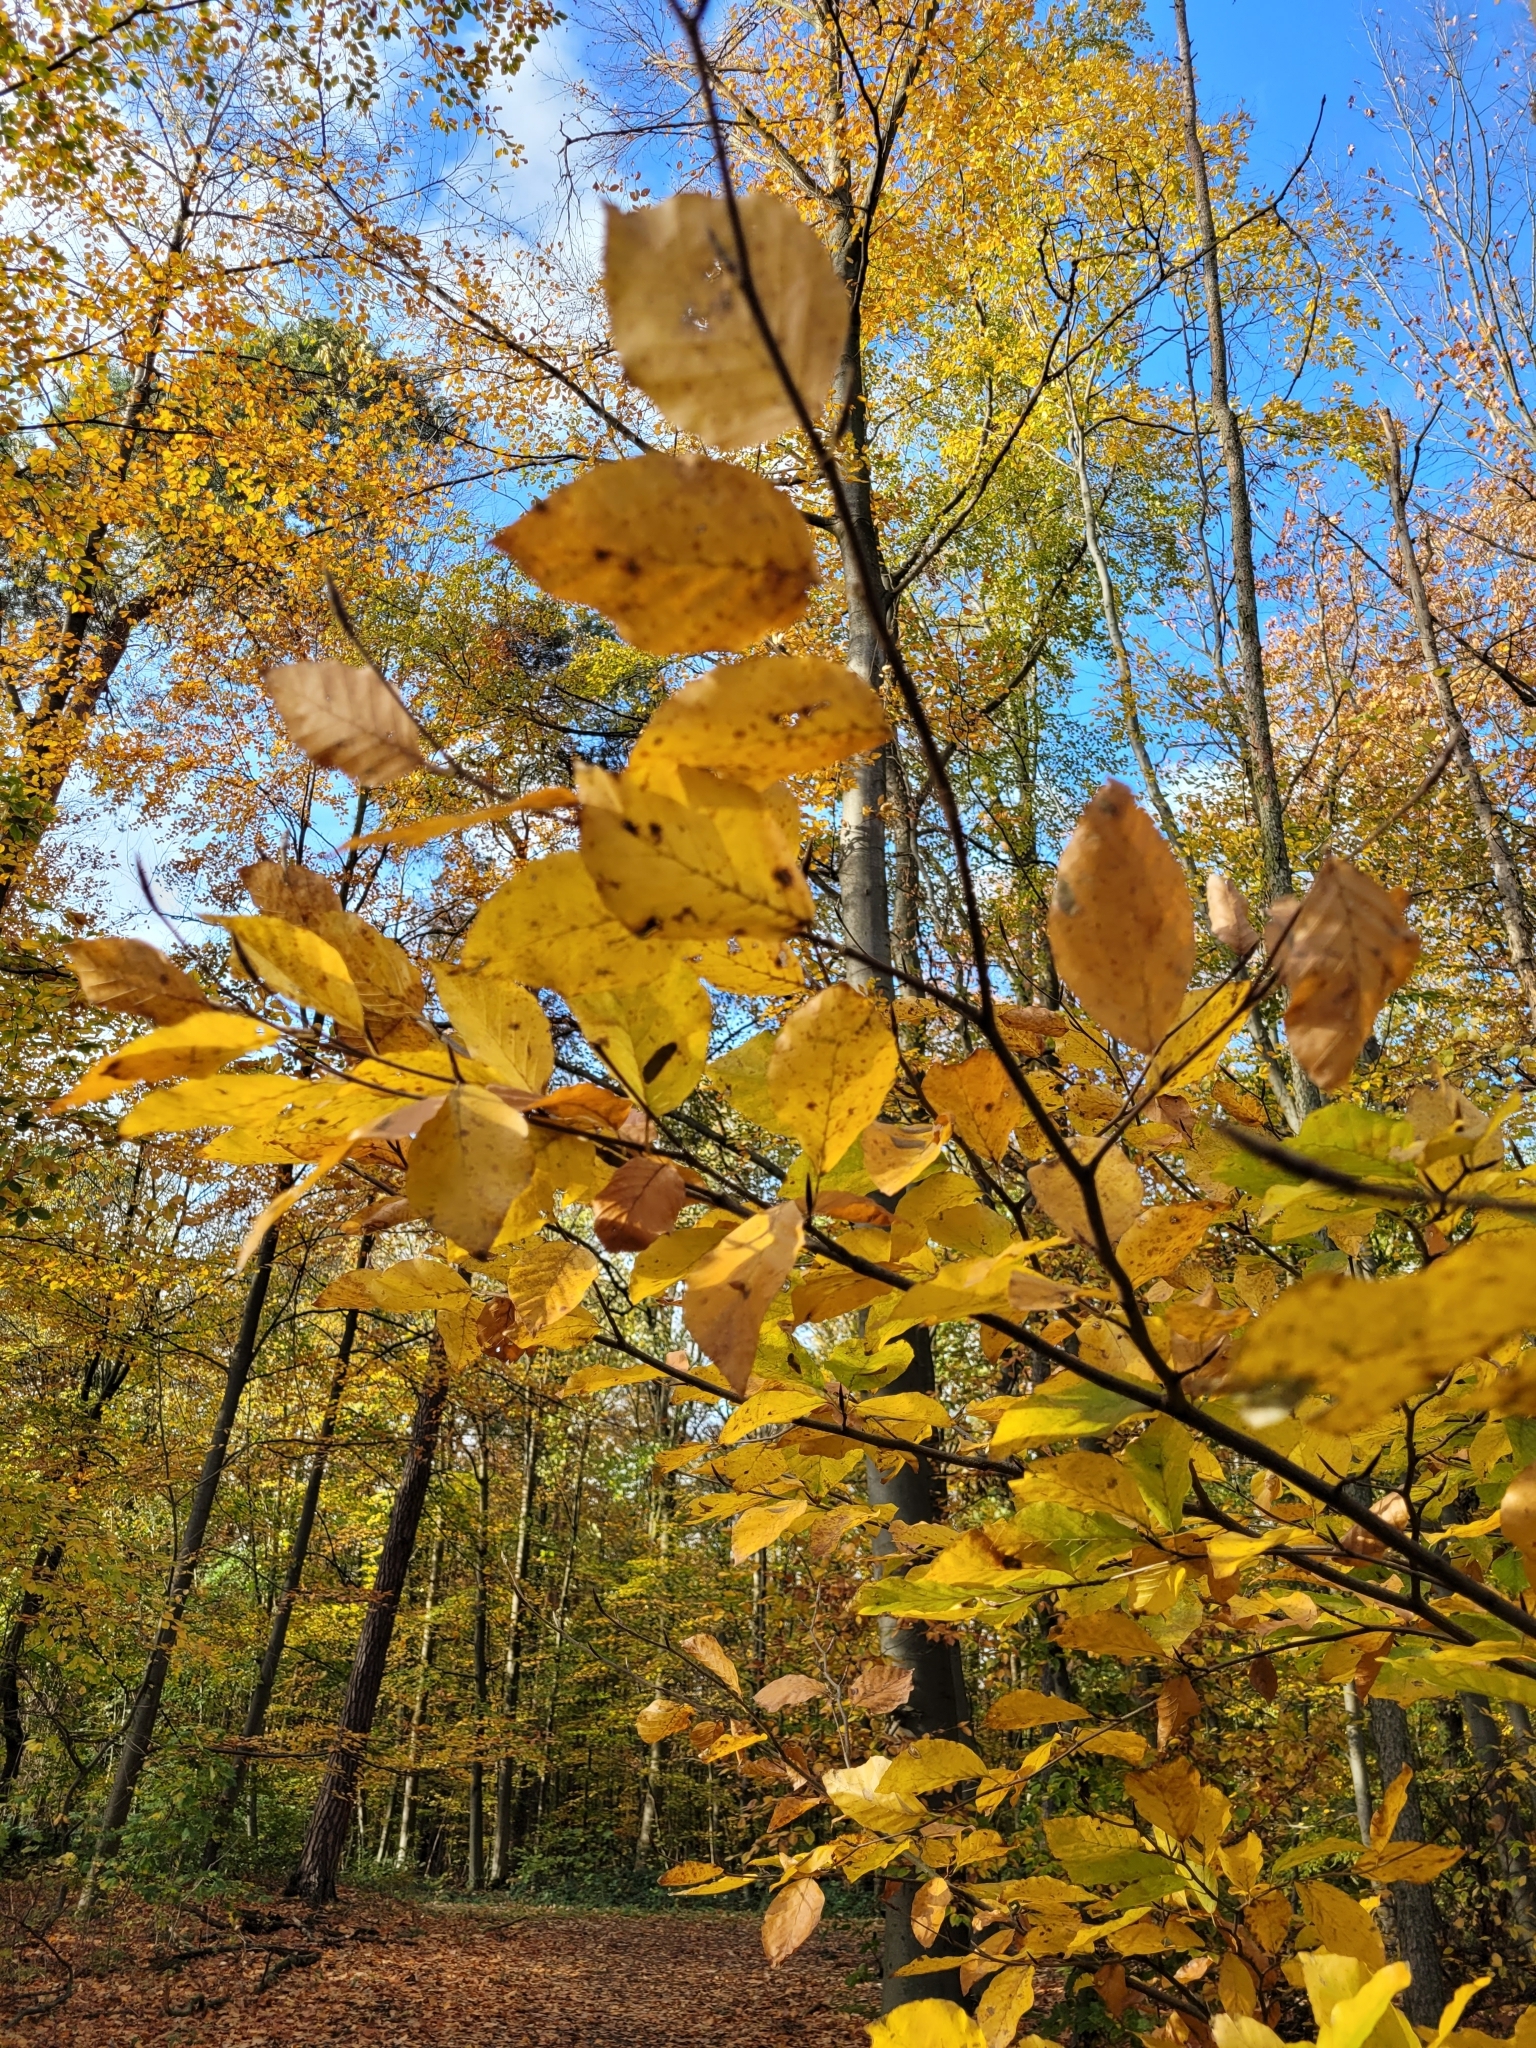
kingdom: Plantae
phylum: Tracheophyta
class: Magnoliopsida
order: Fagales
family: Fagaceae
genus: Fagus
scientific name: Fagus sylvatica
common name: Beech
